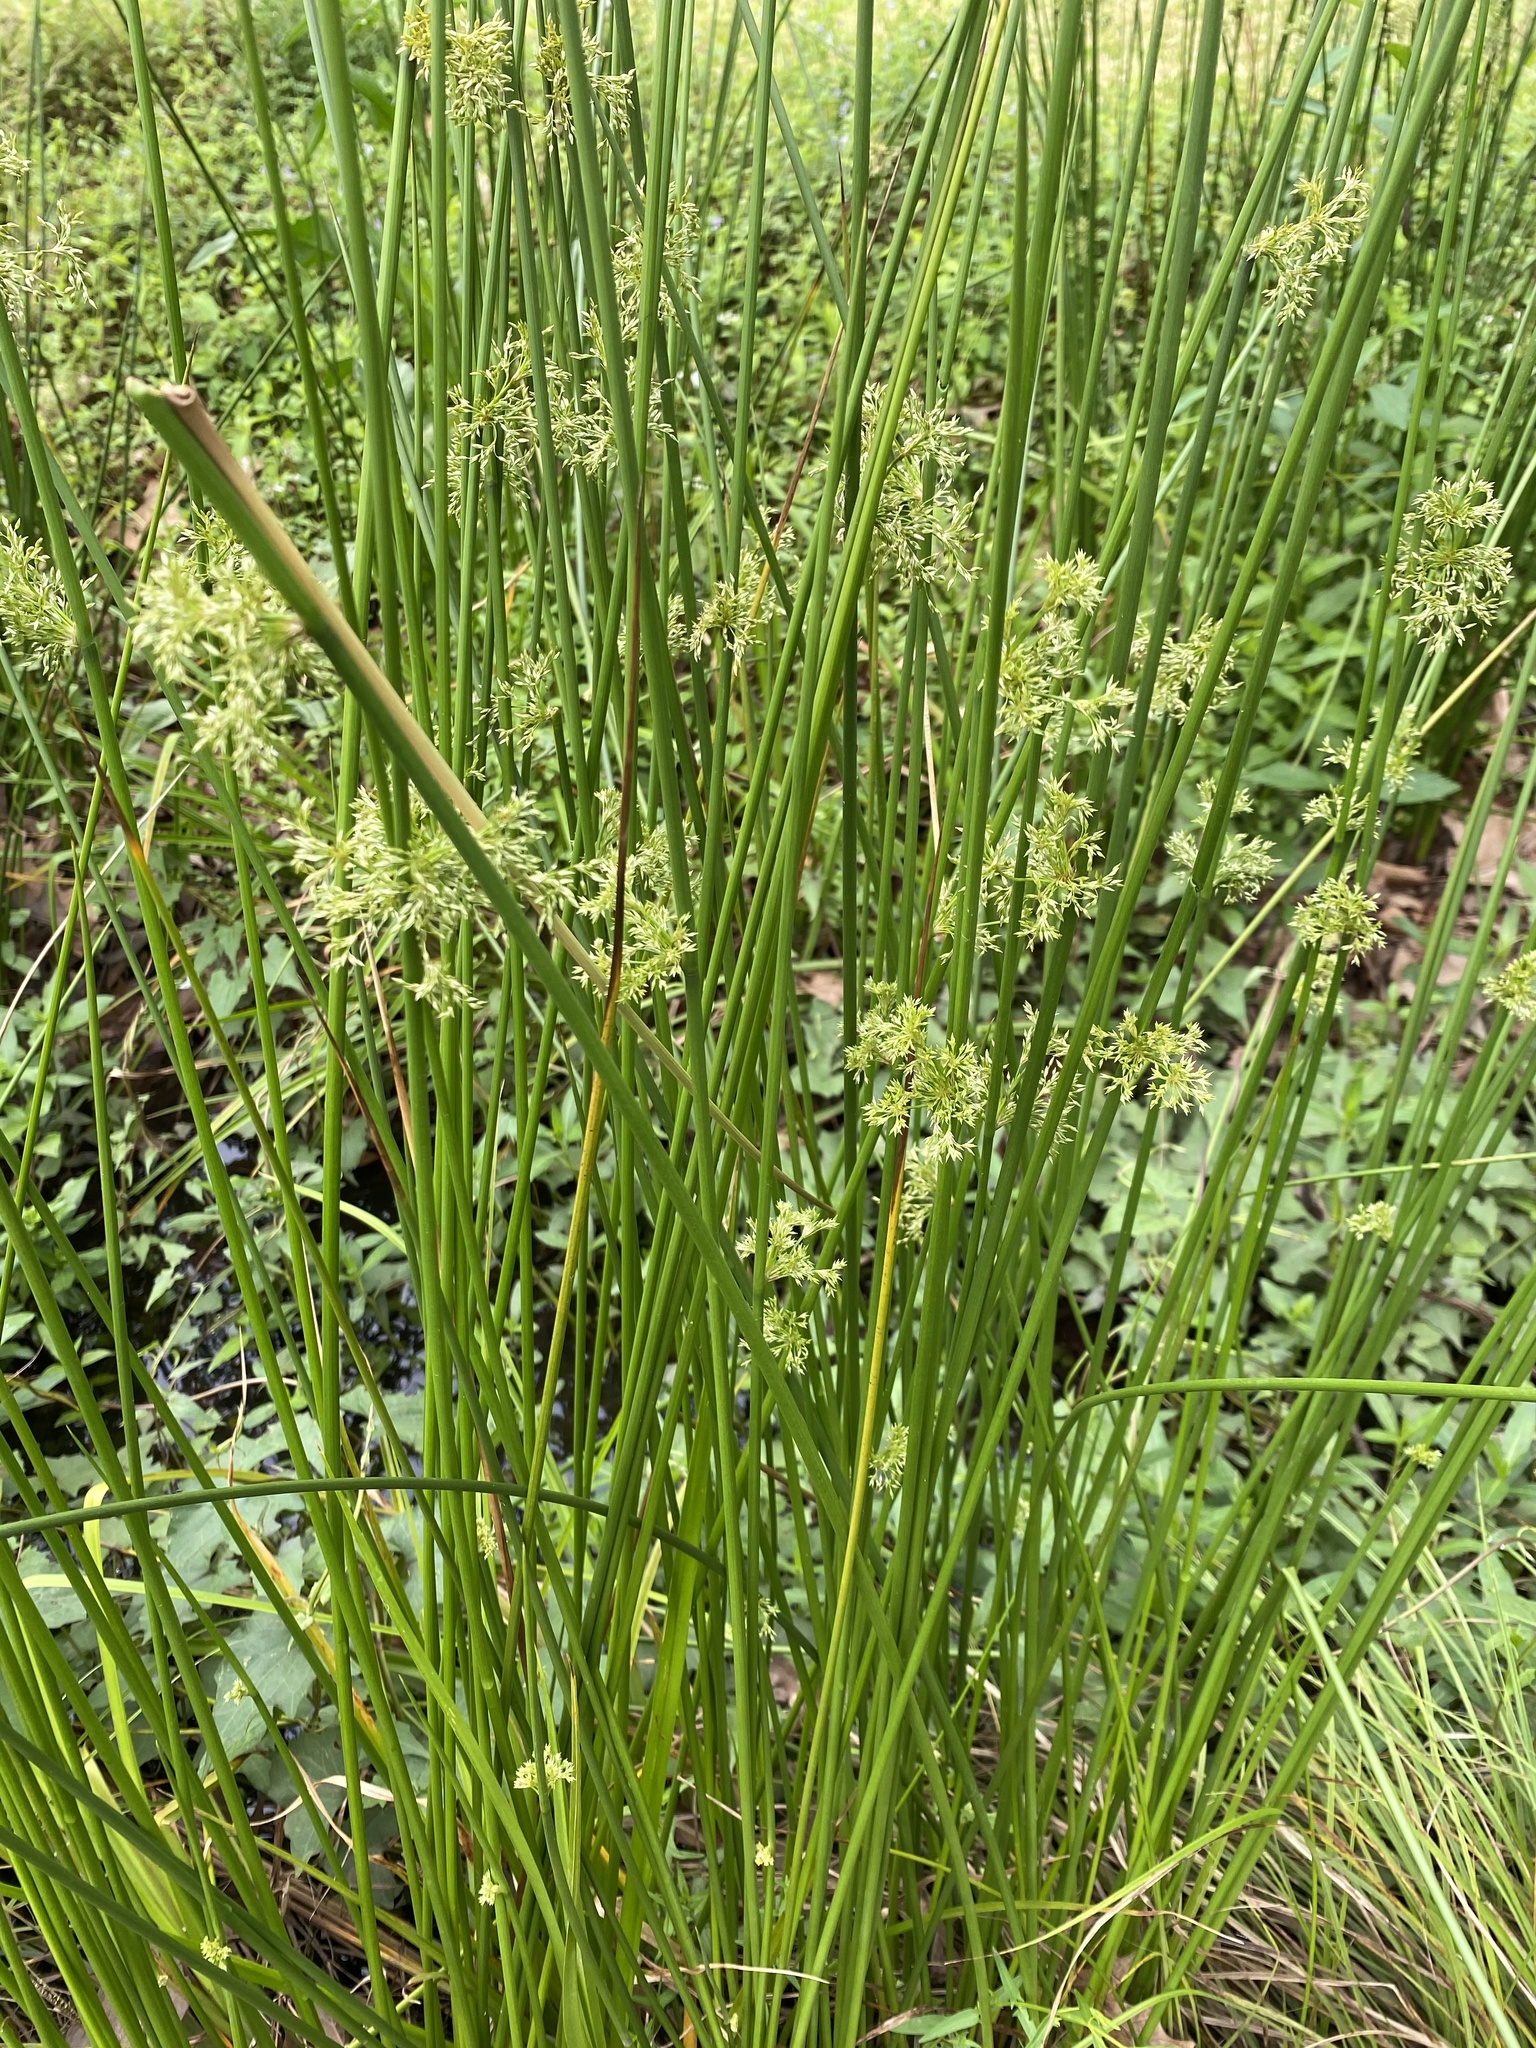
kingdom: Plantae
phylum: Tracheophyta
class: Liliopsida
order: Poales
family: Juncaceae
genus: Juncus
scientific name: Juncus effusus
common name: Soft rush
